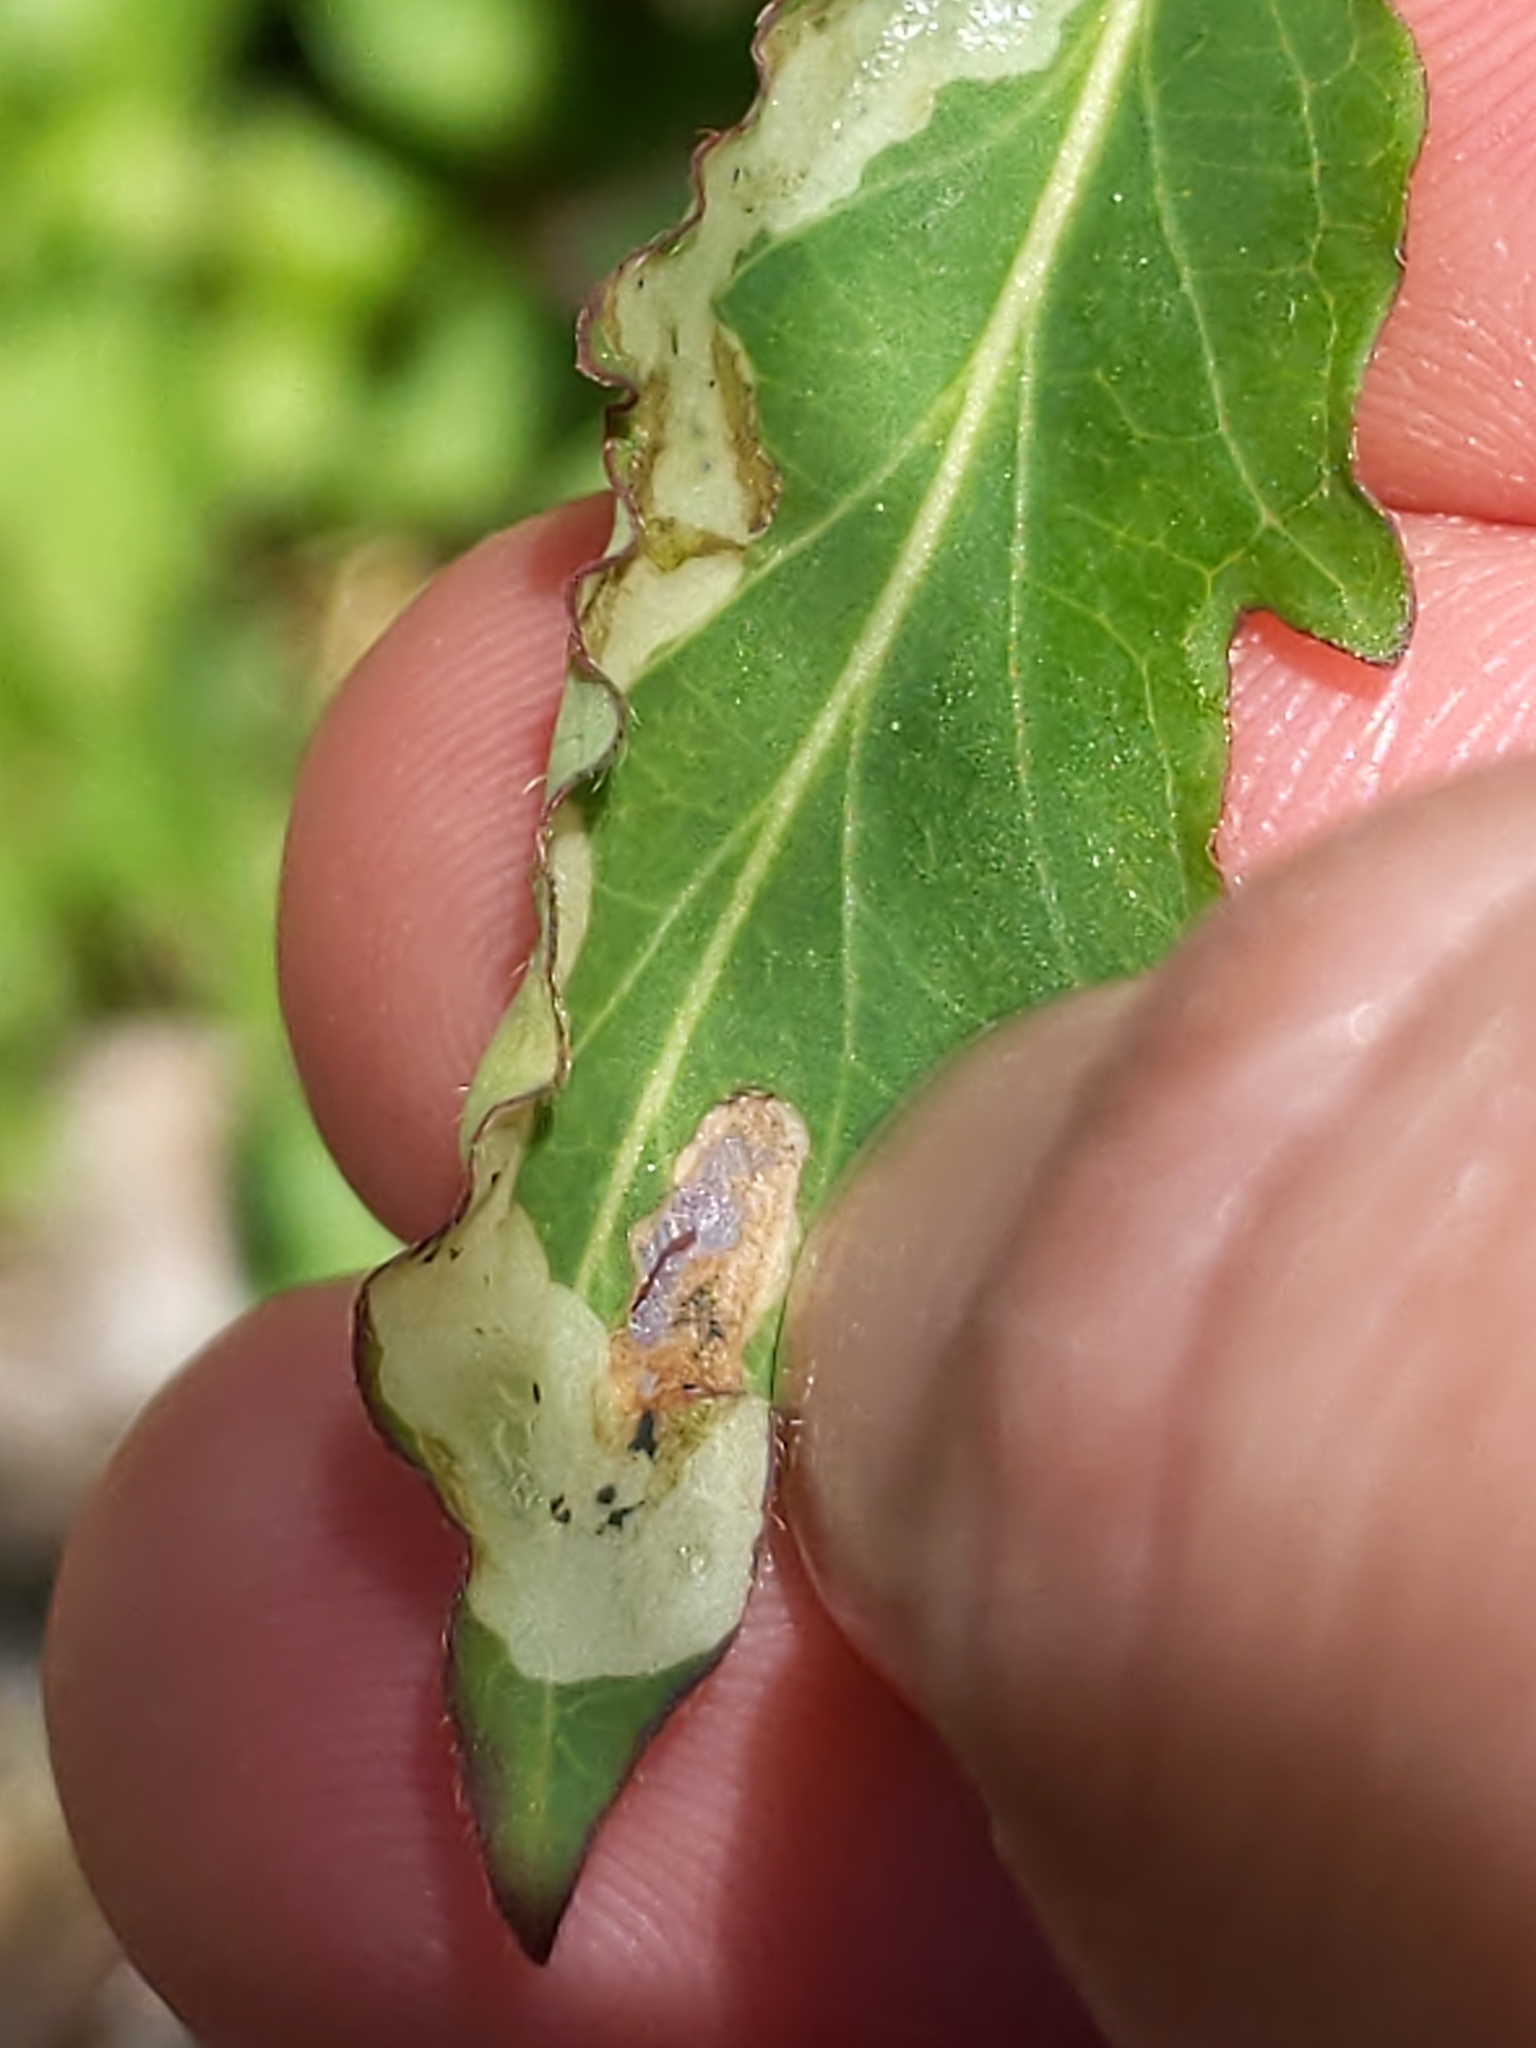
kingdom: Animalia
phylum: Arthropoda
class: Insecta
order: Diptera
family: Agromyzidae
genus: Aulagromyza
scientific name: Aulagromyza cornigera
